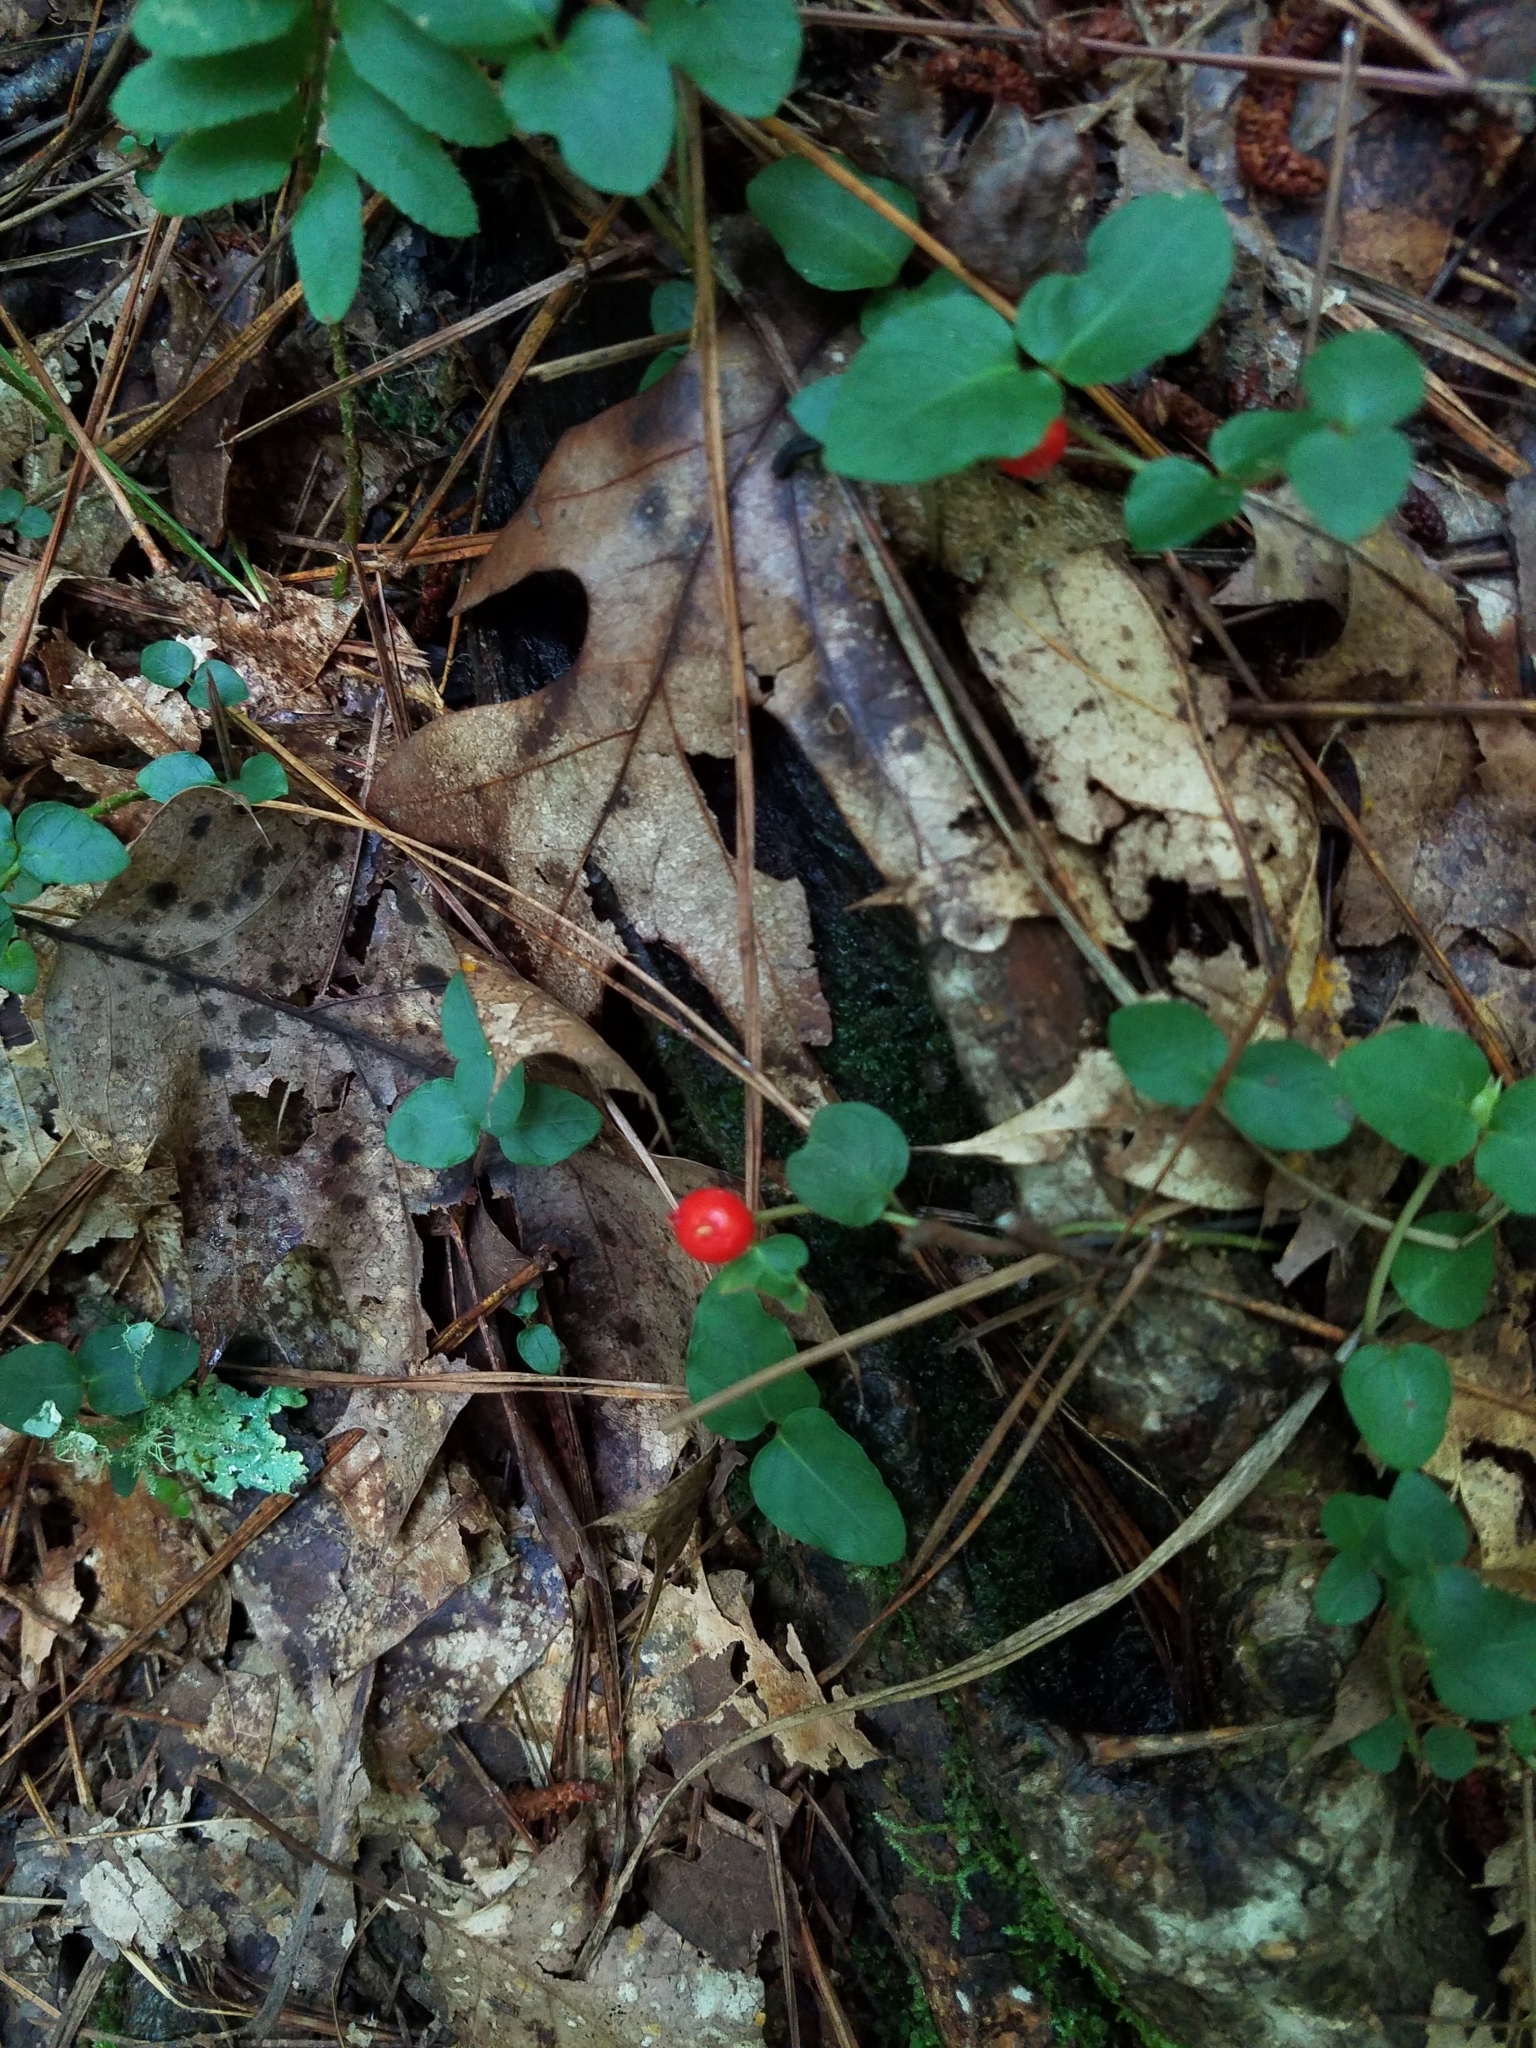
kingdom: Plantae
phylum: Tracheophyta
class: Magnoliopsida
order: Gentianales
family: Rubiaceae
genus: Mitchella
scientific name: Mitchella repens
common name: Partridge-berry
